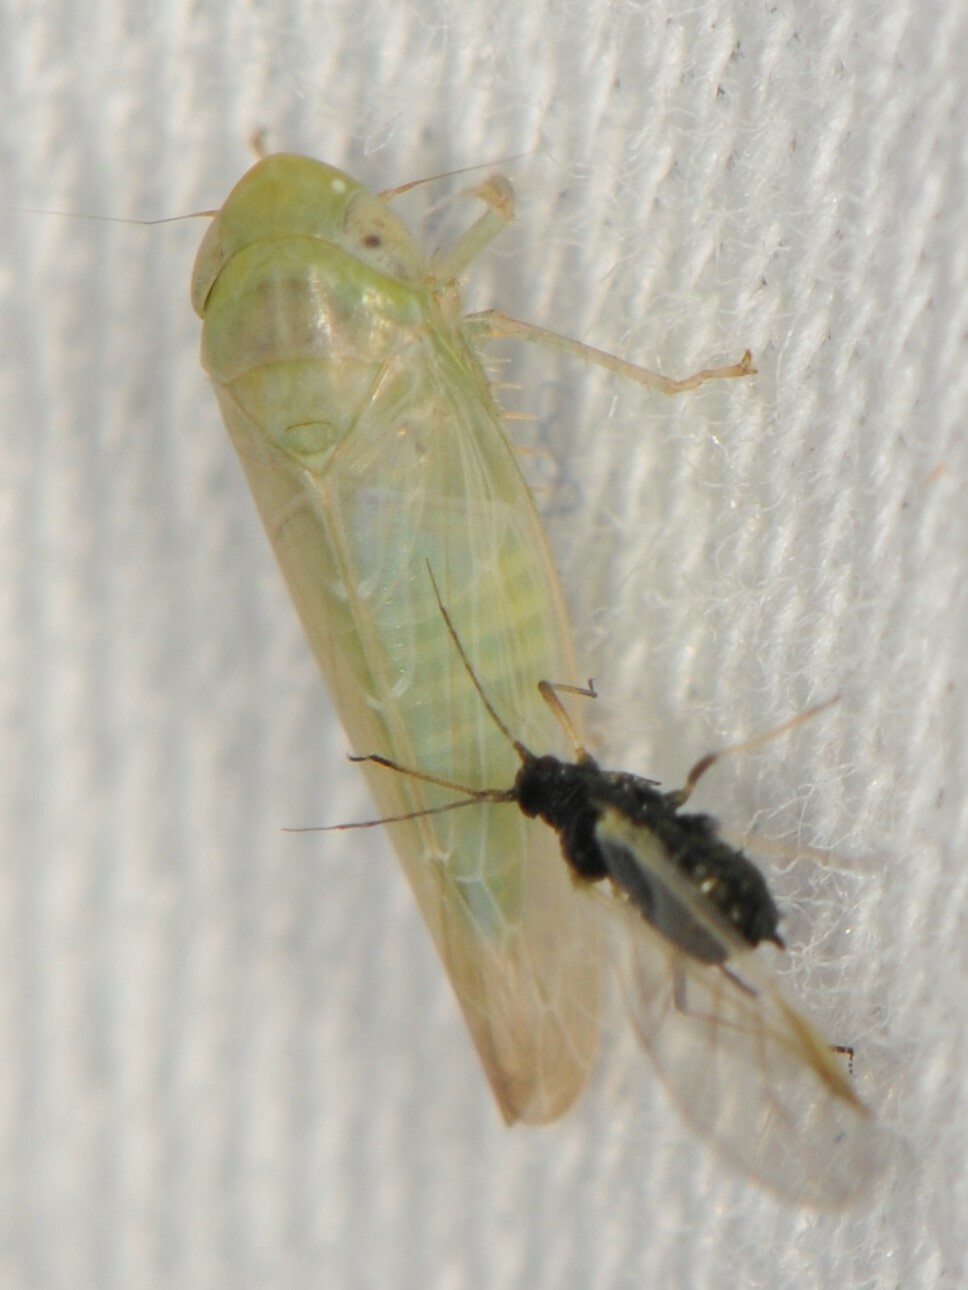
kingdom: Animalia
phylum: Arthropoda
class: Insecta
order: Hemiptera
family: Cicadellidae
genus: Chlorotettix
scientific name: Chlorotettix
